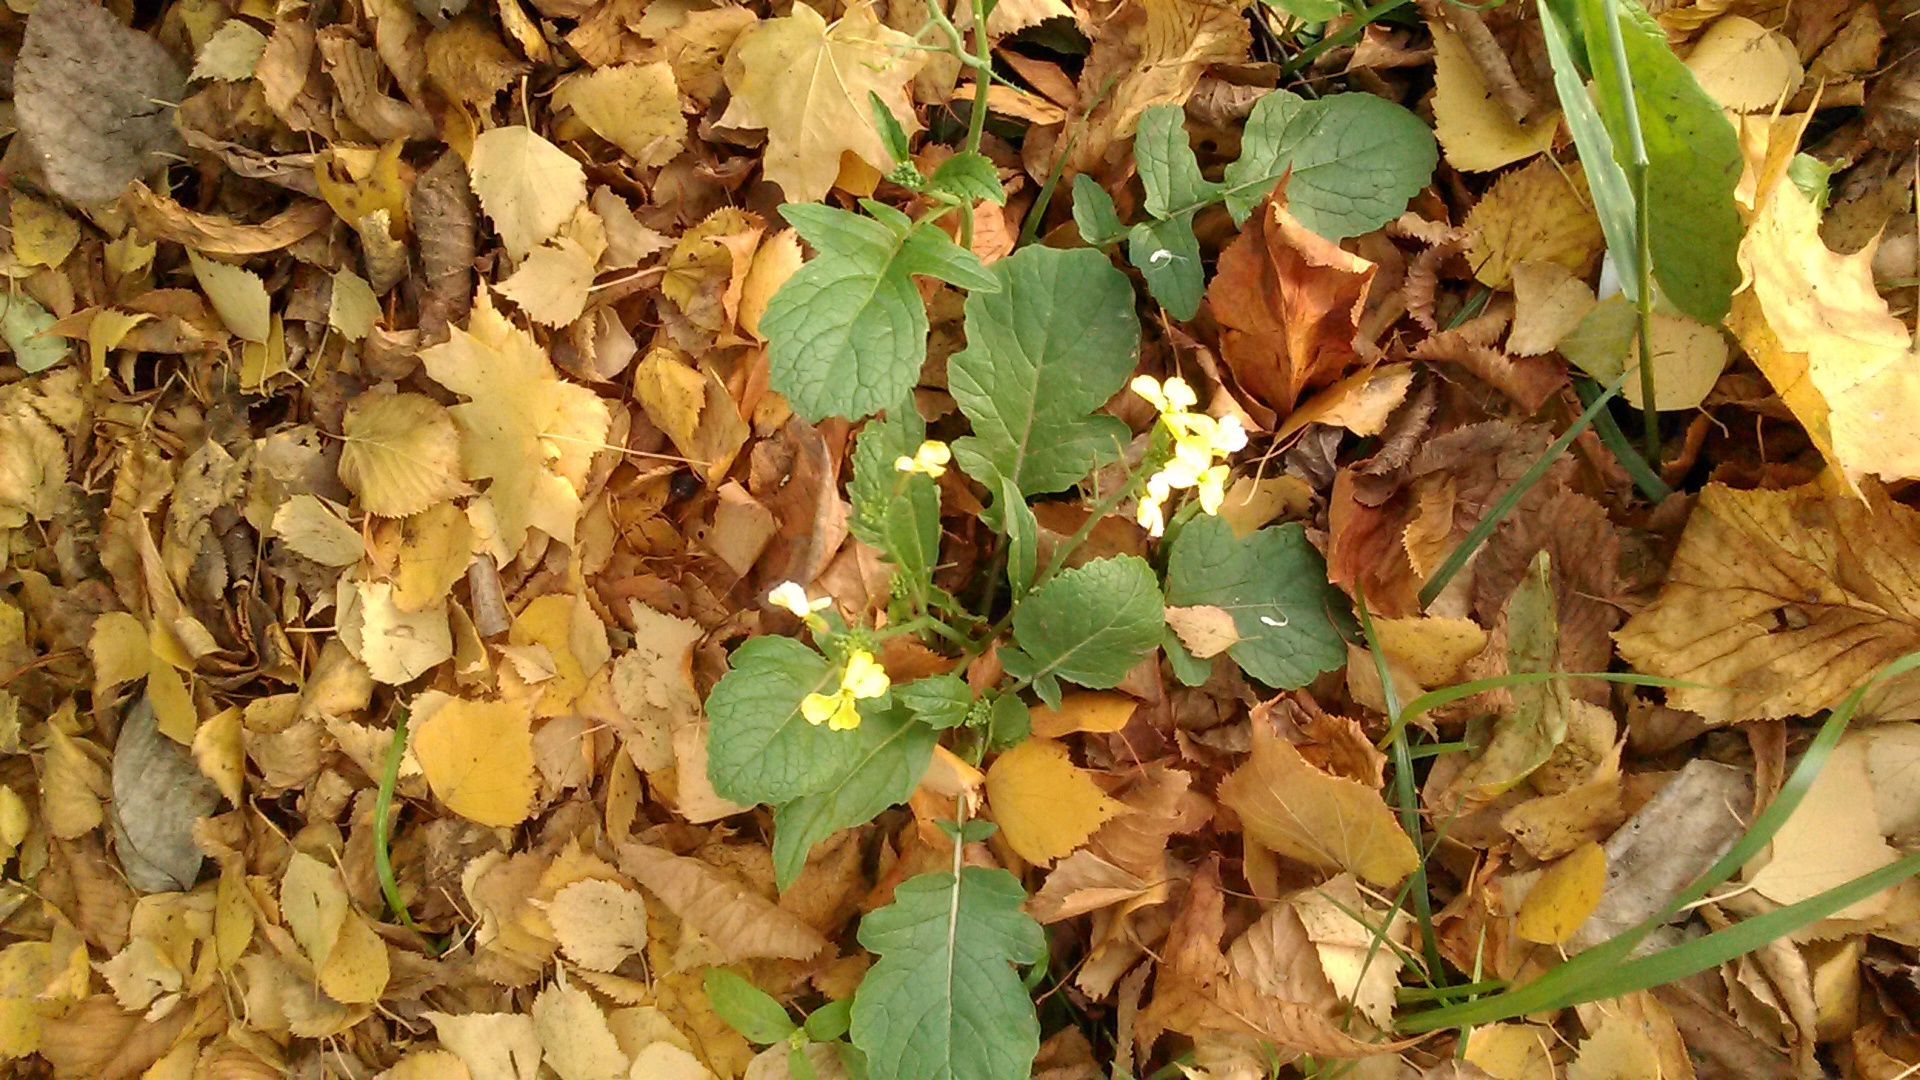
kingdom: Plantae
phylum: Tracheophyta
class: Magnoliopsida
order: Brassicales
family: Brassicaceae
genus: Raphanus
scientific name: Raphanus raphanistrum
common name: Wild radish
